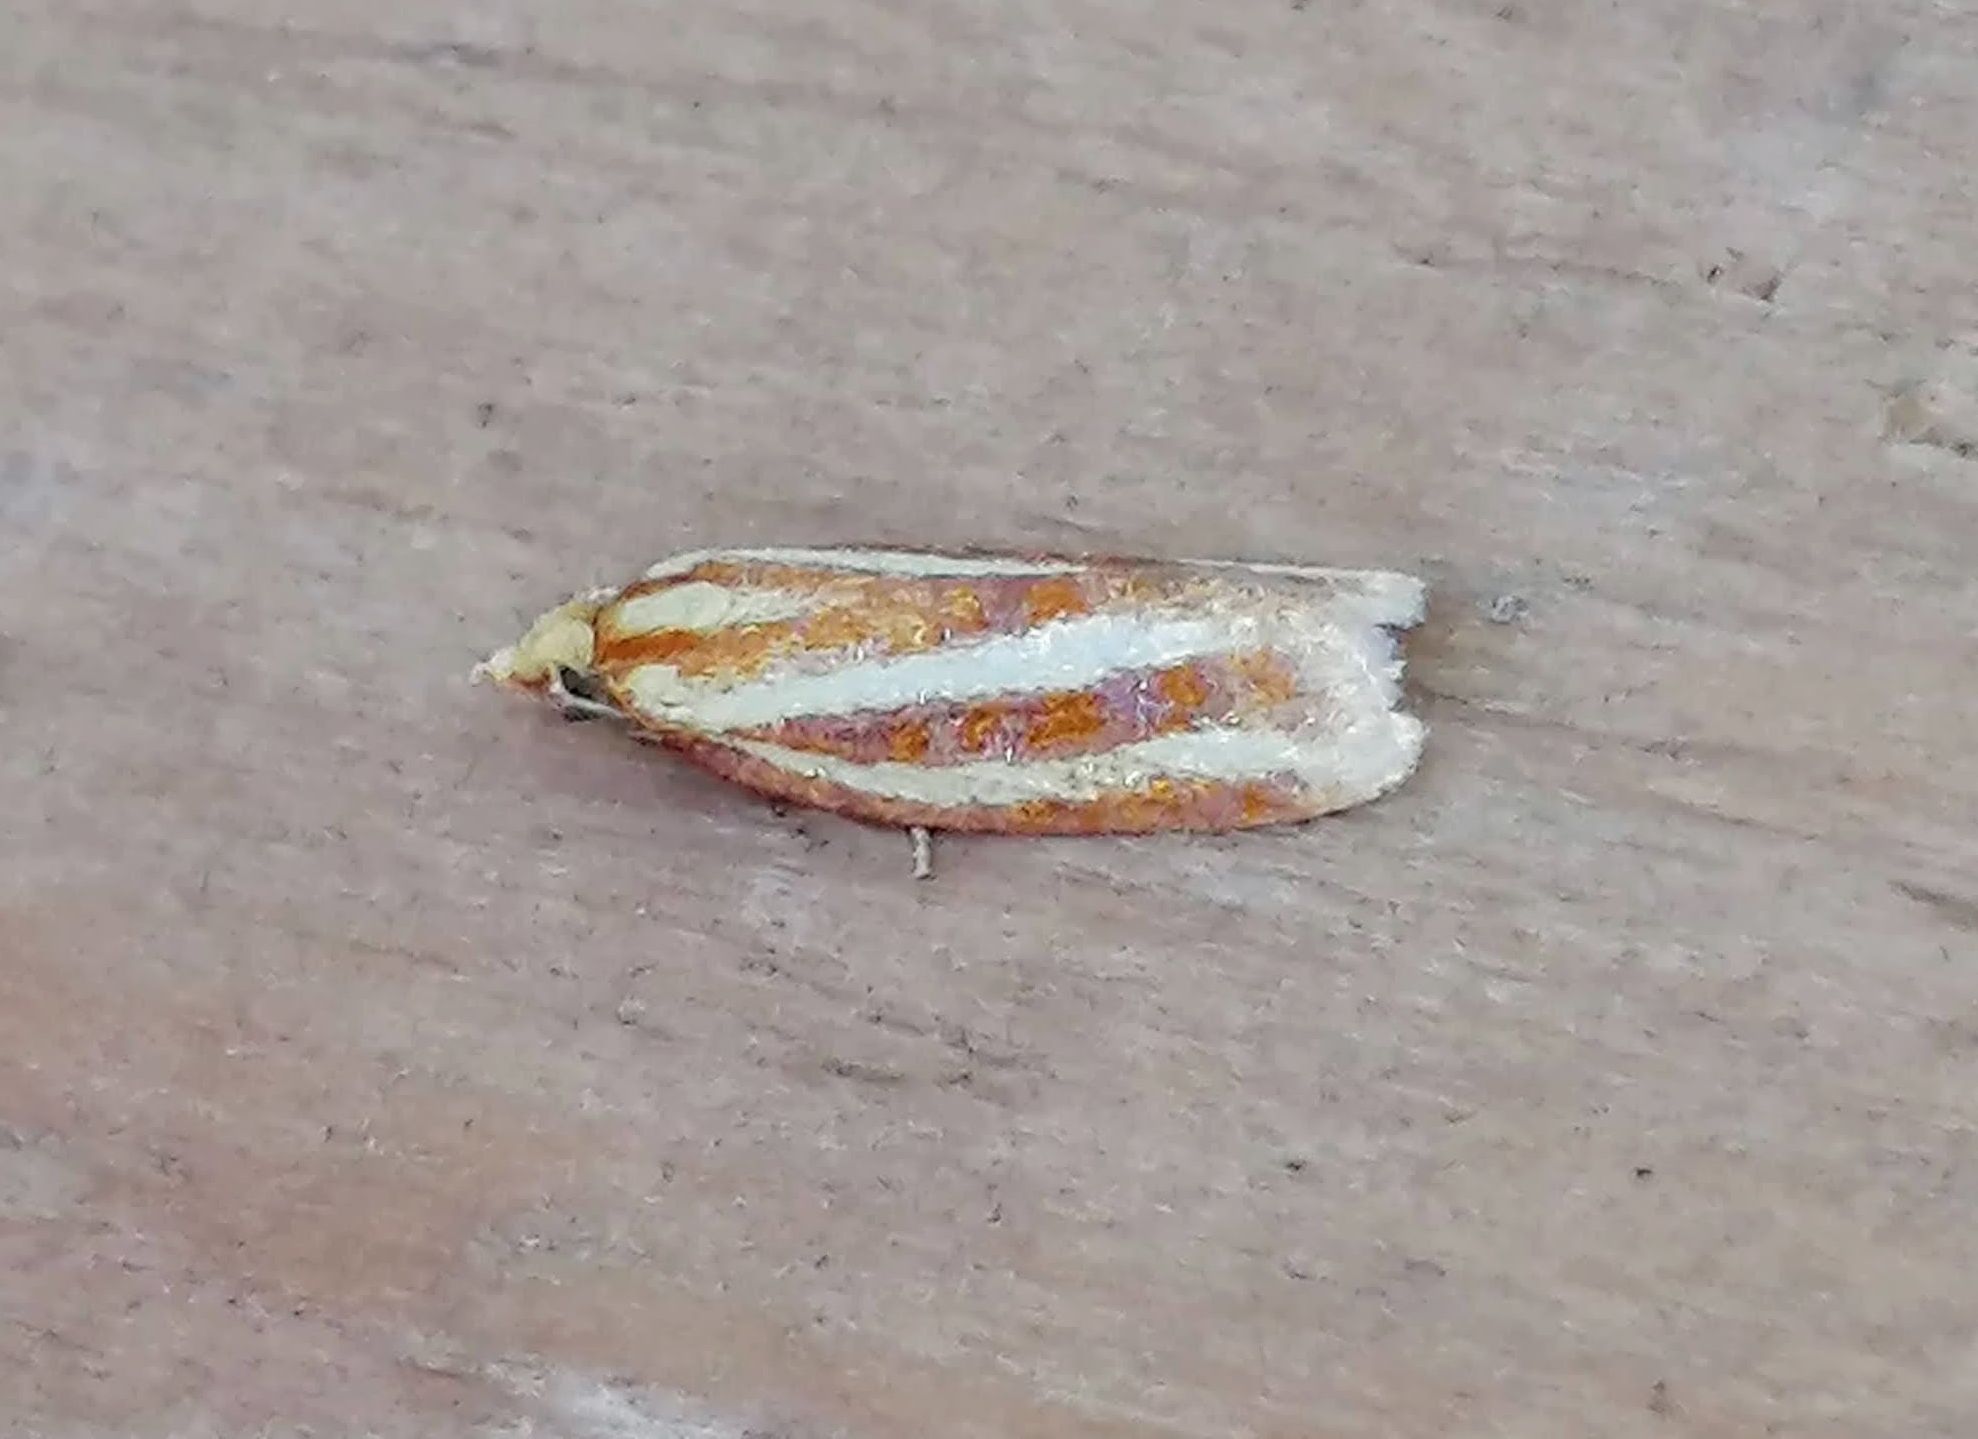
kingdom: Animalia
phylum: Arthropoda
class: Insecta
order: Lepidoptera
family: Tortricidae
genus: Sparganothis
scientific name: Sparganothis tristriata
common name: Three-streaked sparganothis moth
